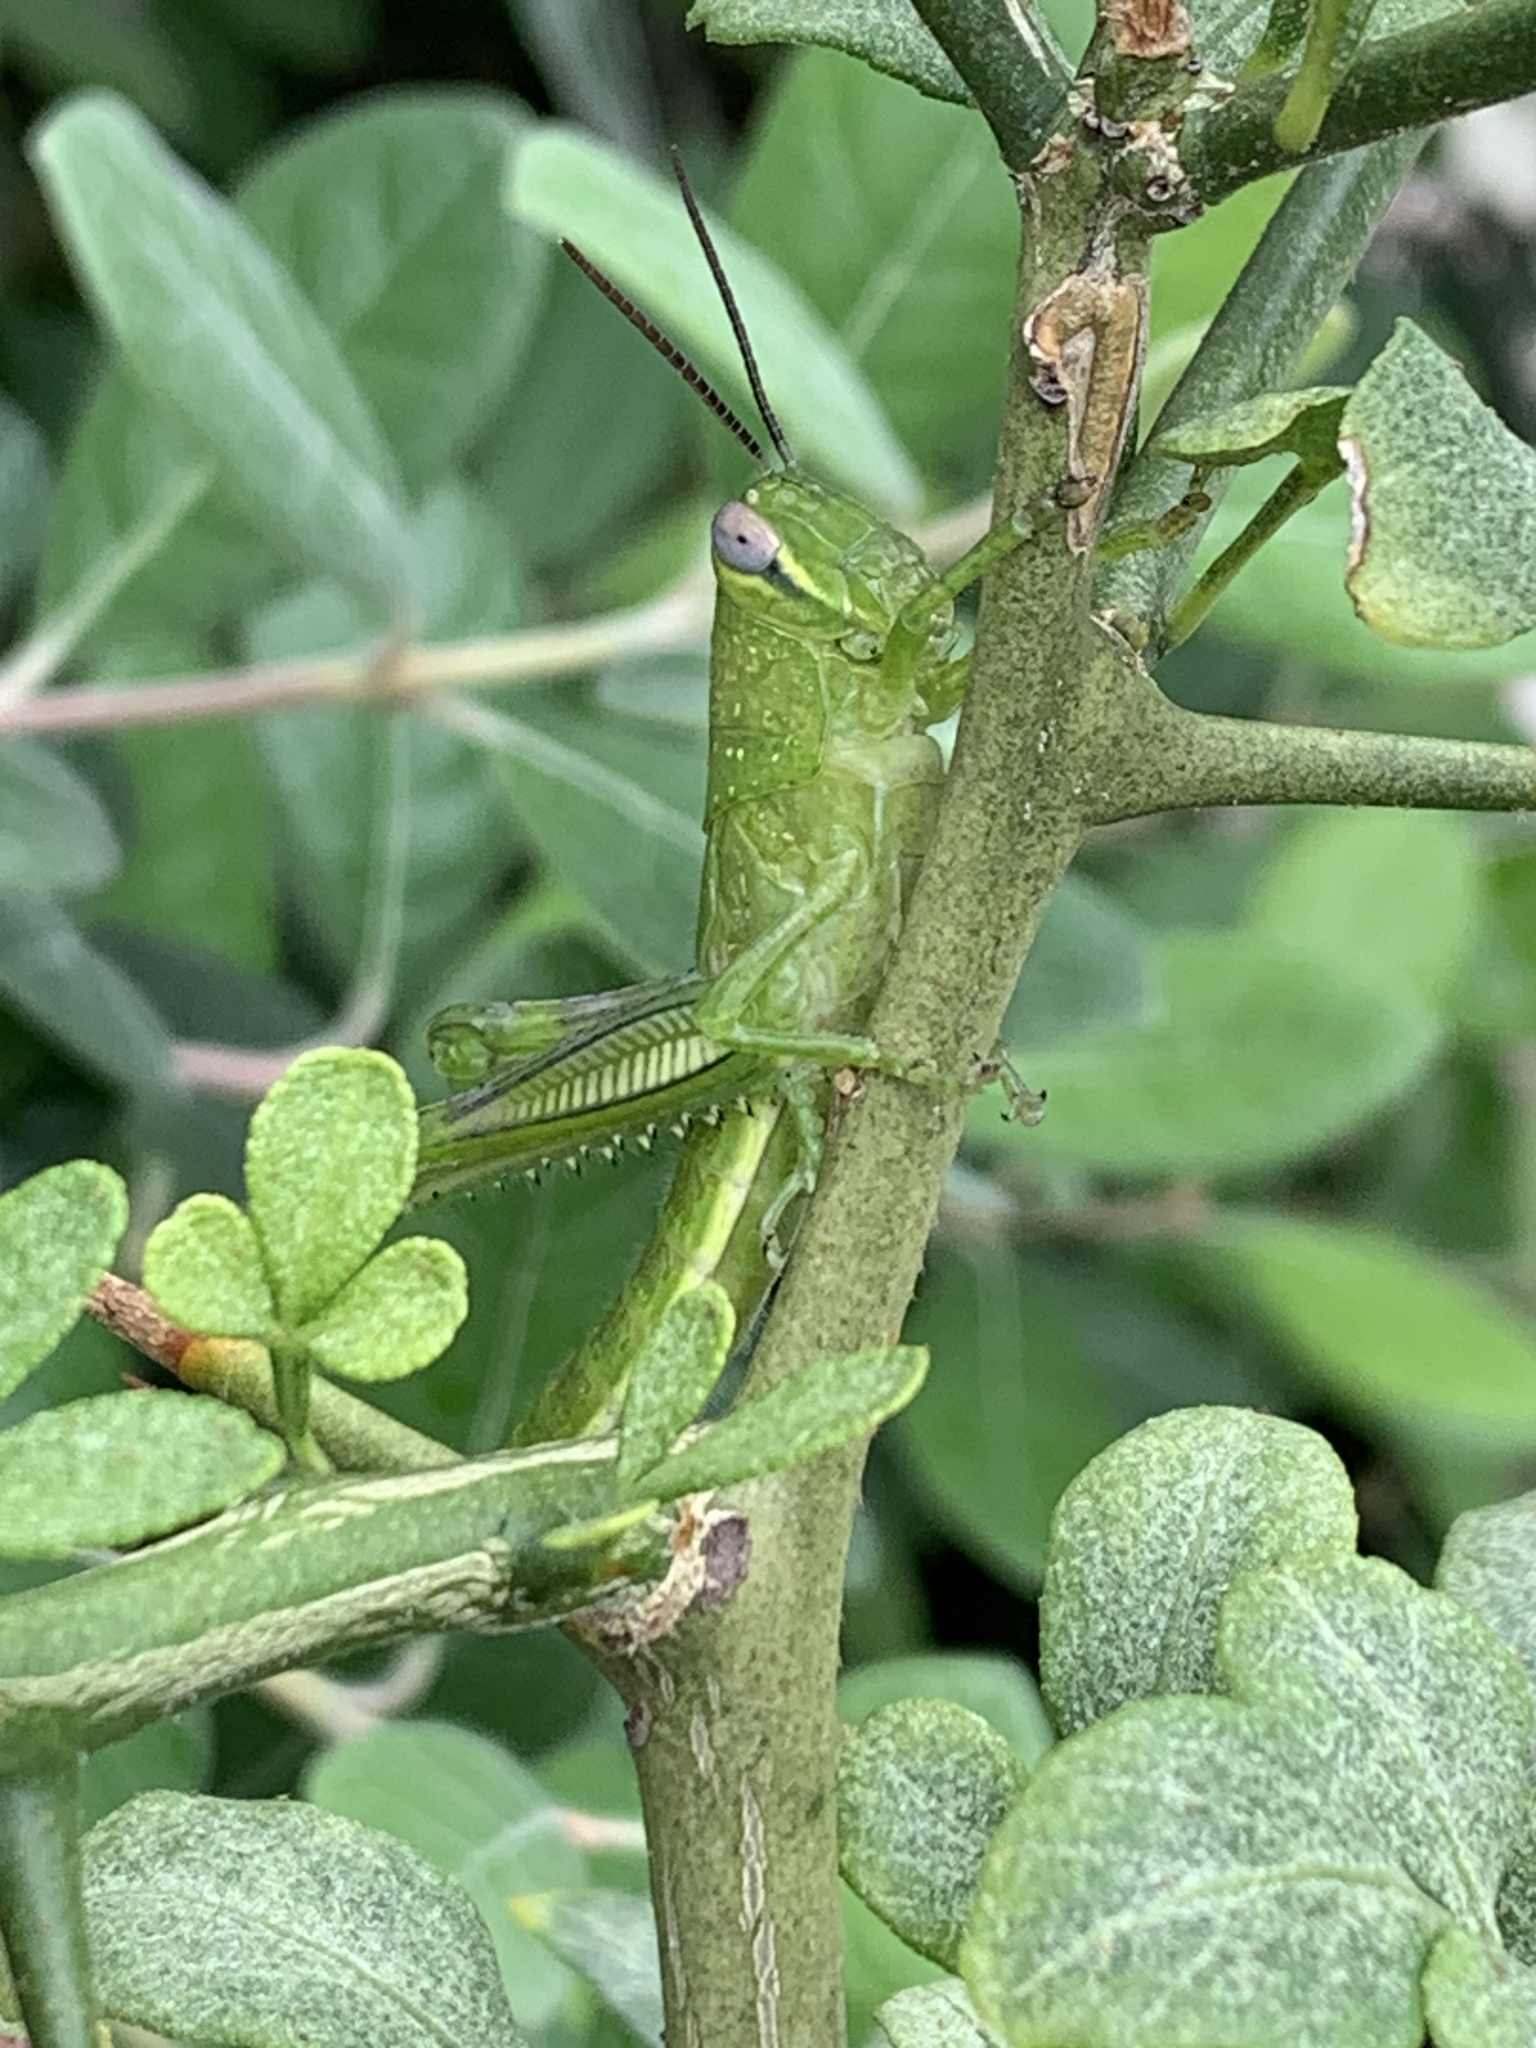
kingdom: Animalia
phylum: Arthropoda
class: Insecta
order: Orthoptera
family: Acrididae
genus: Valanga
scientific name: Valanga irregularis
